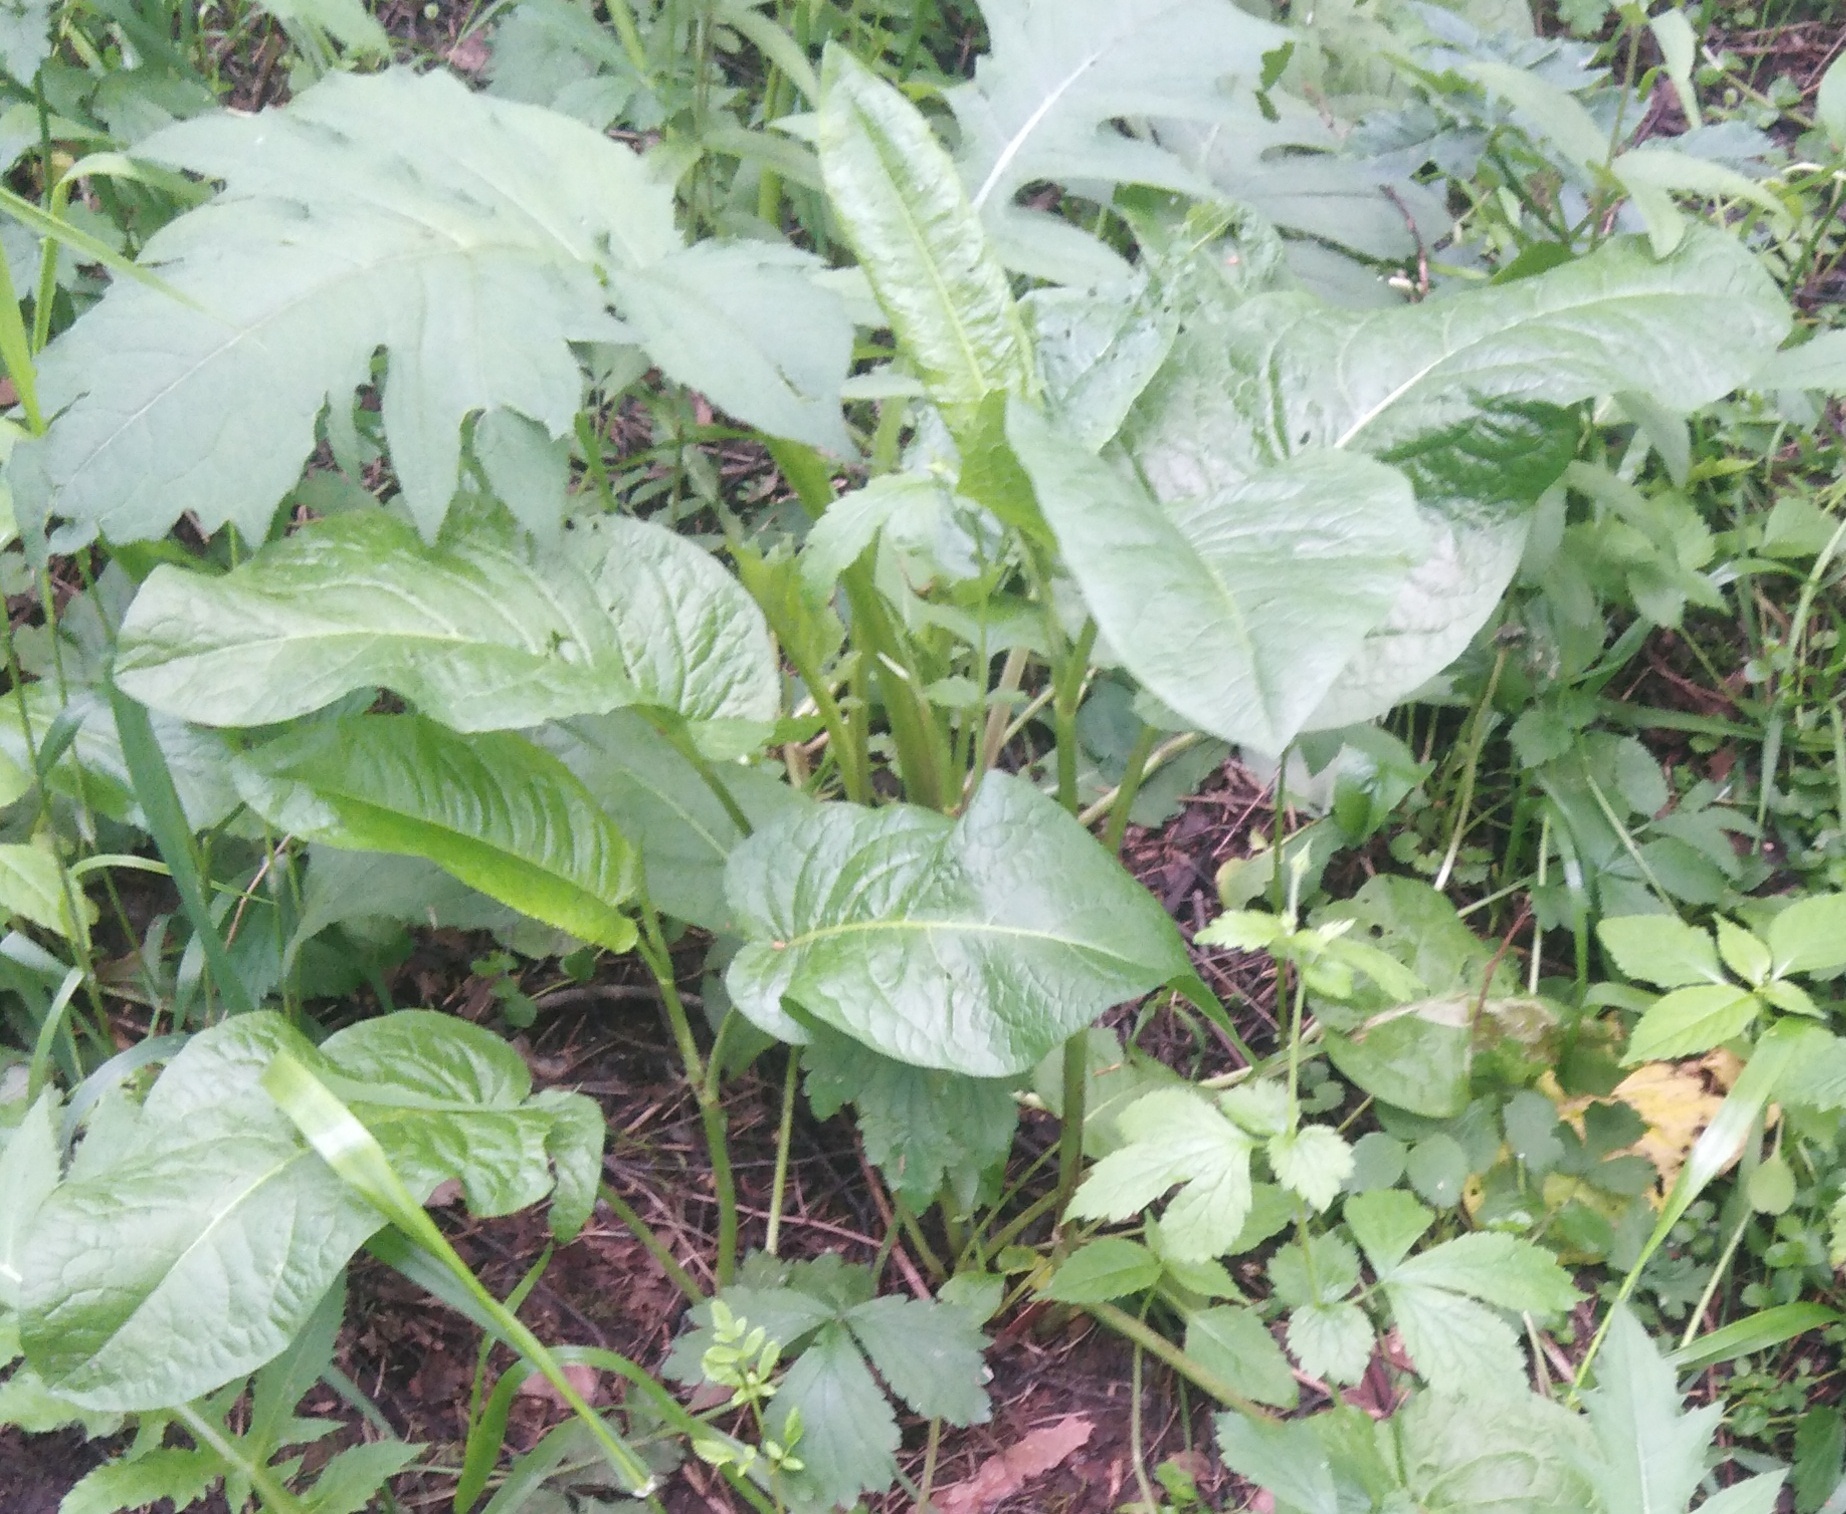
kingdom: Plantae
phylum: Tracheophyta
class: Magnoliopsida
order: Caryophyllales
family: Polygonaceae
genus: Rumex
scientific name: Rumex obtusifolius
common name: Bitter dock
